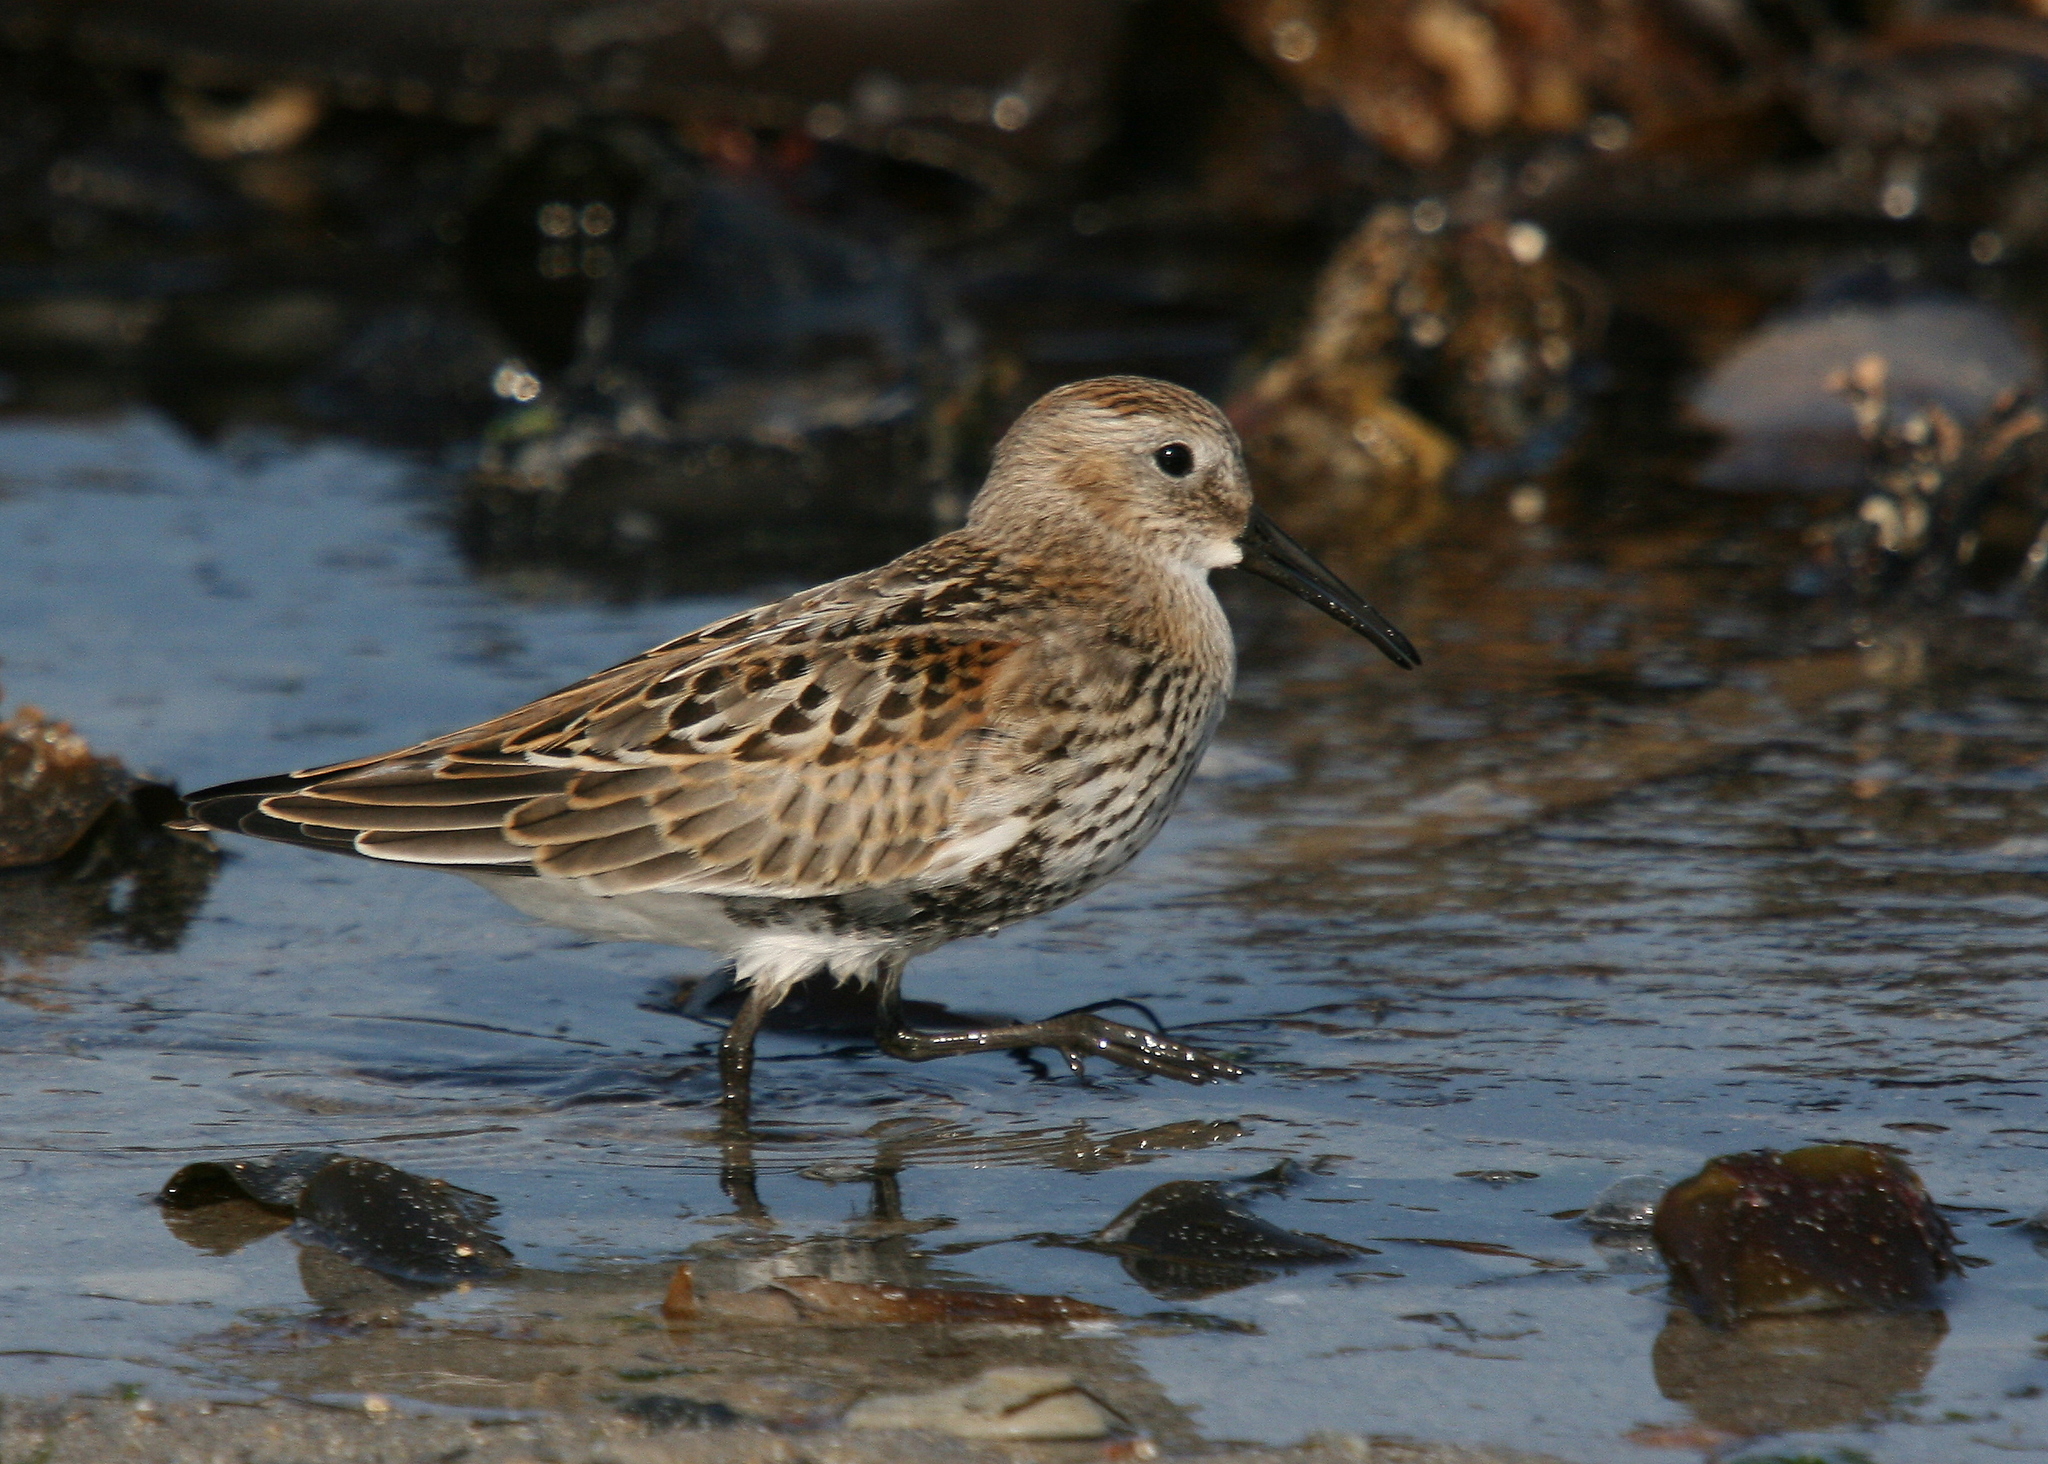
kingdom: Animalia
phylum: Chordata
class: Aves
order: Charadriiformes
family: Scolopacidae
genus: Calidris
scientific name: Calidris alpina
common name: Dunlin
